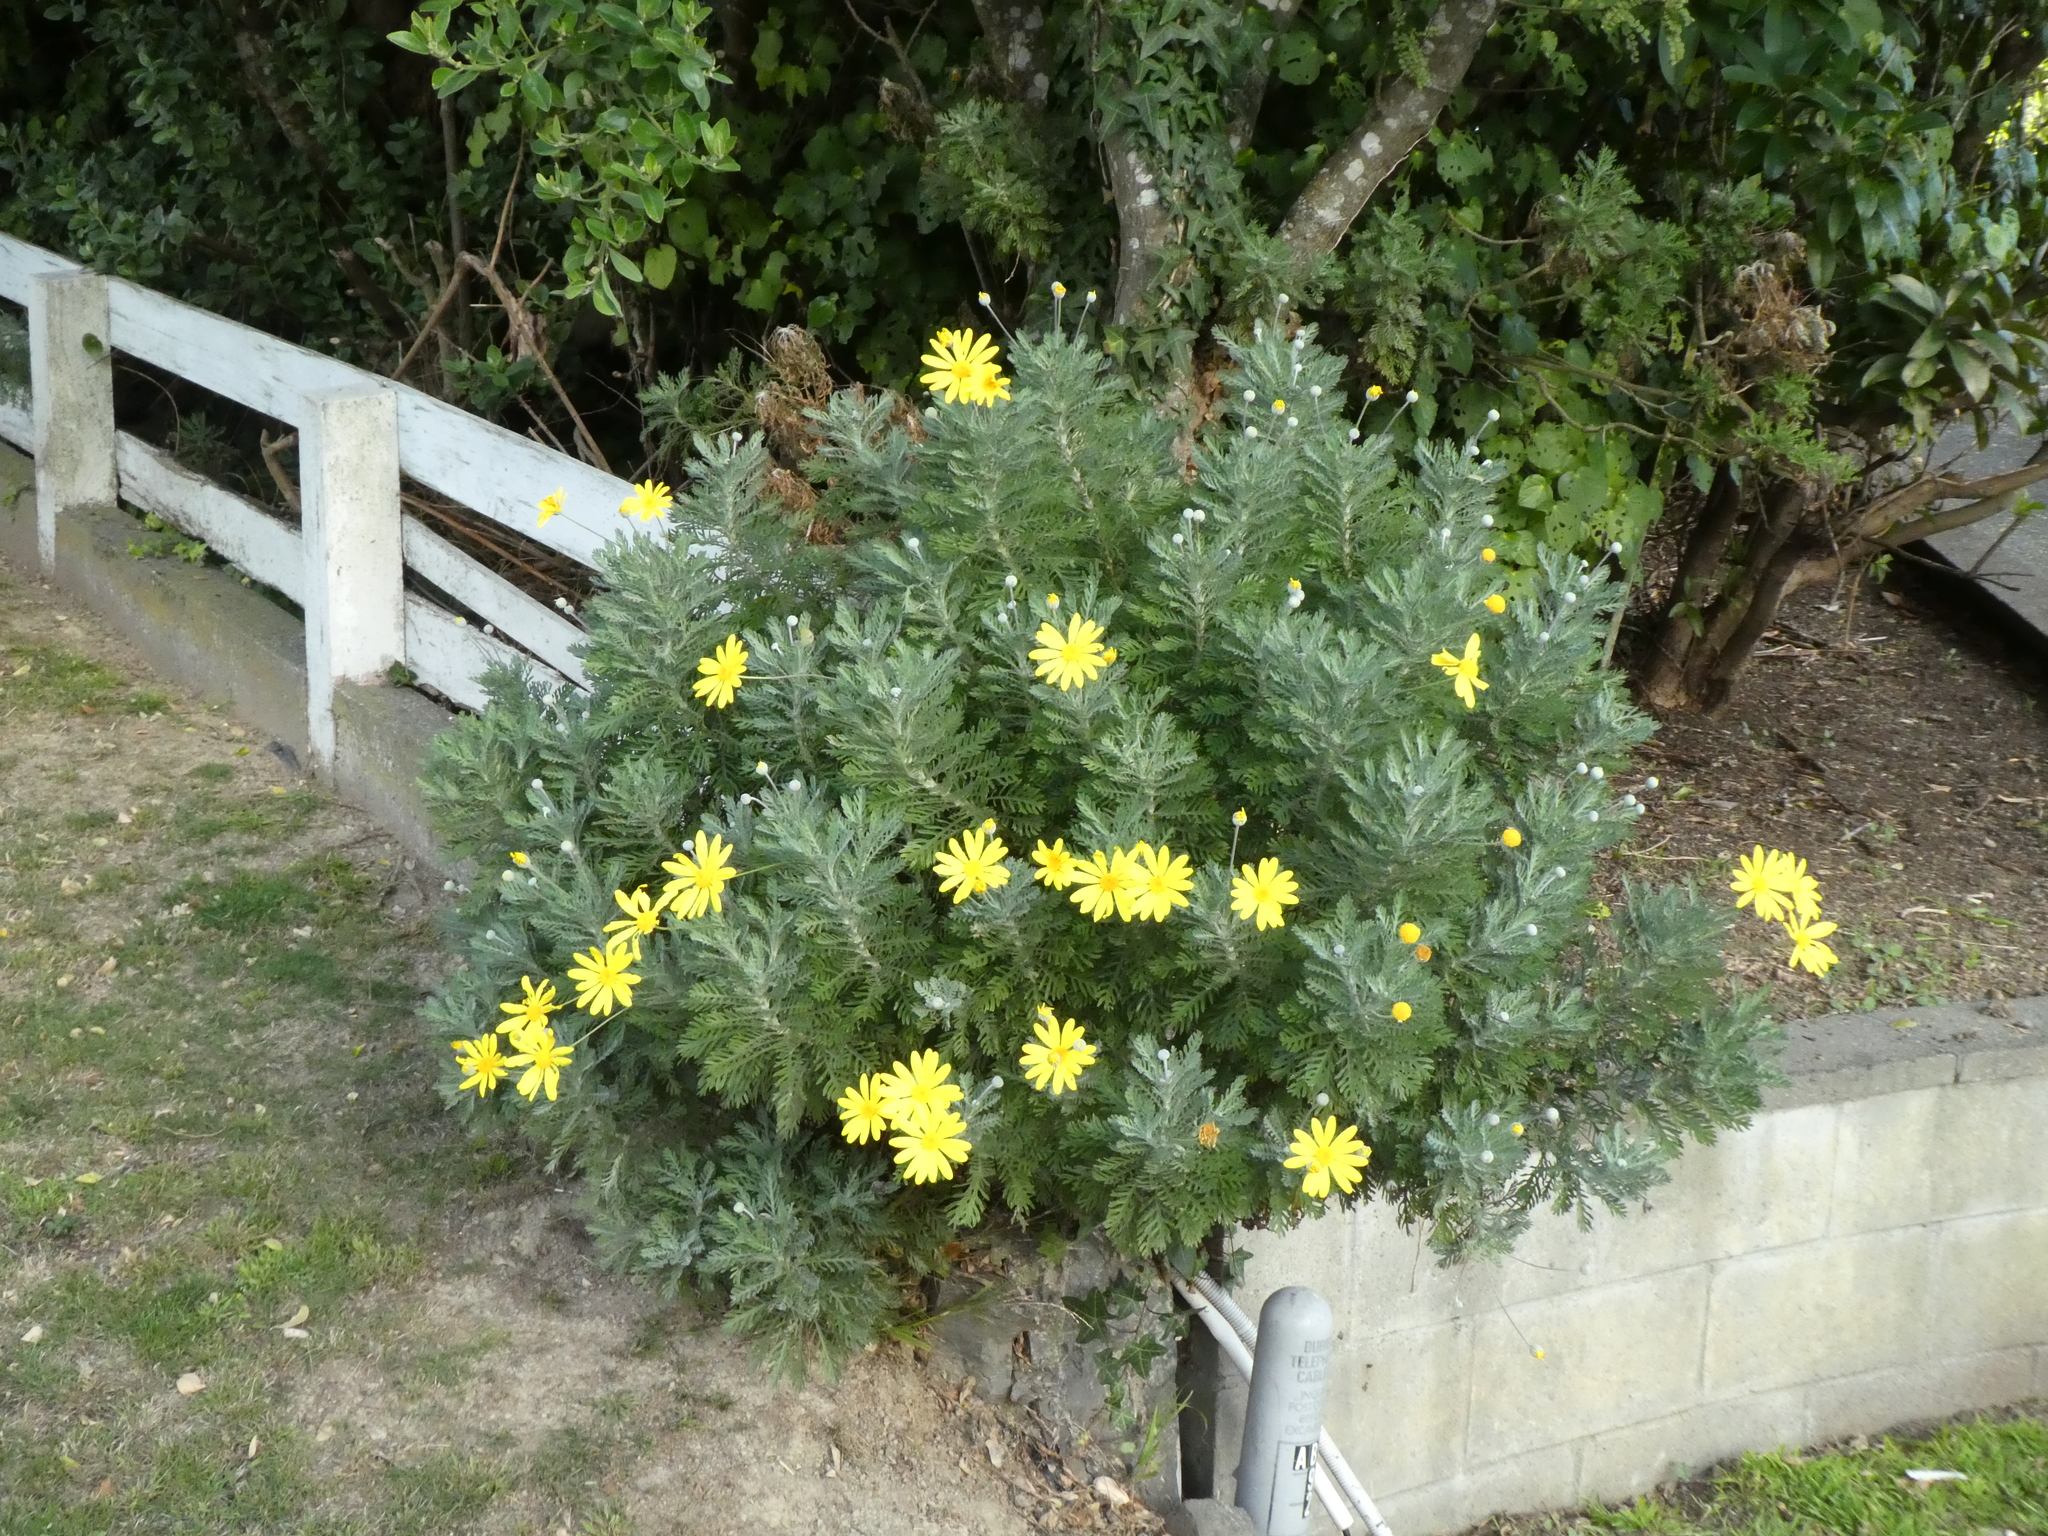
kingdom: Plantae
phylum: Tracheophyta
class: Magnoliopsida
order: Asterales
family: Asteraceae
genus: Euryops
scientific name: Euryops pectinatus
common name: Gray-leaf euryops
